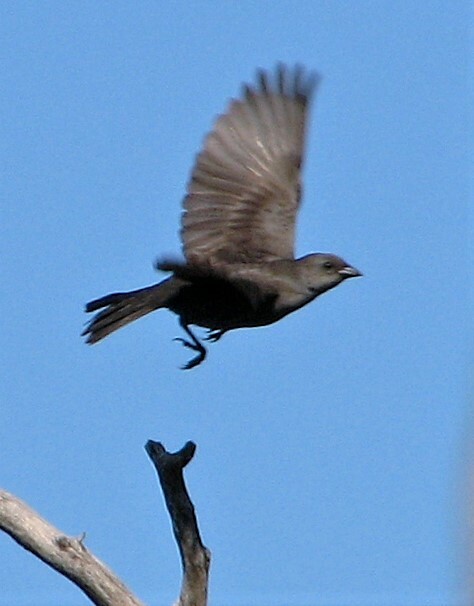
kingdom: Animalia
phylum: Chordata
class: Aves
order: Passeriformes
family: Icteridae
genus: Molothrus
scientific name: Molothrus bonariensis
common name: Shiny cowbird
